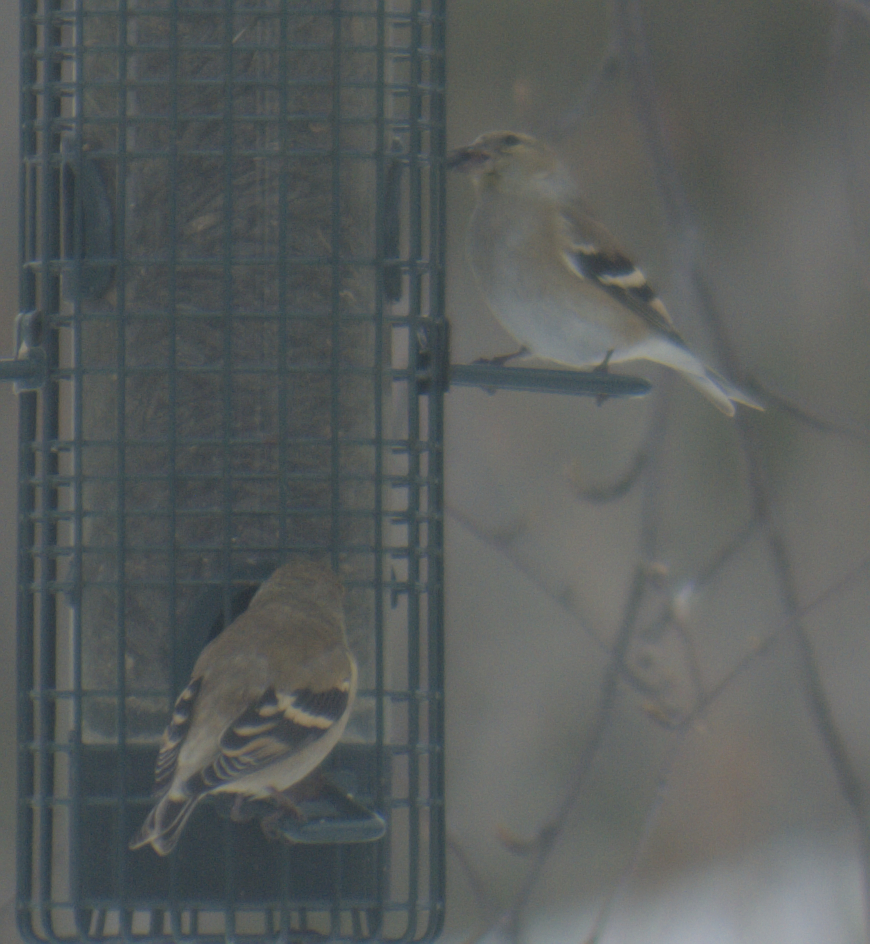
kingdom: Animalia
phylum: Chordata
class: Aves
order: Passeriformes
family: Fringillidae
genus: Spinus
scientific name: Spinus tristis
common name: American goldfinch
